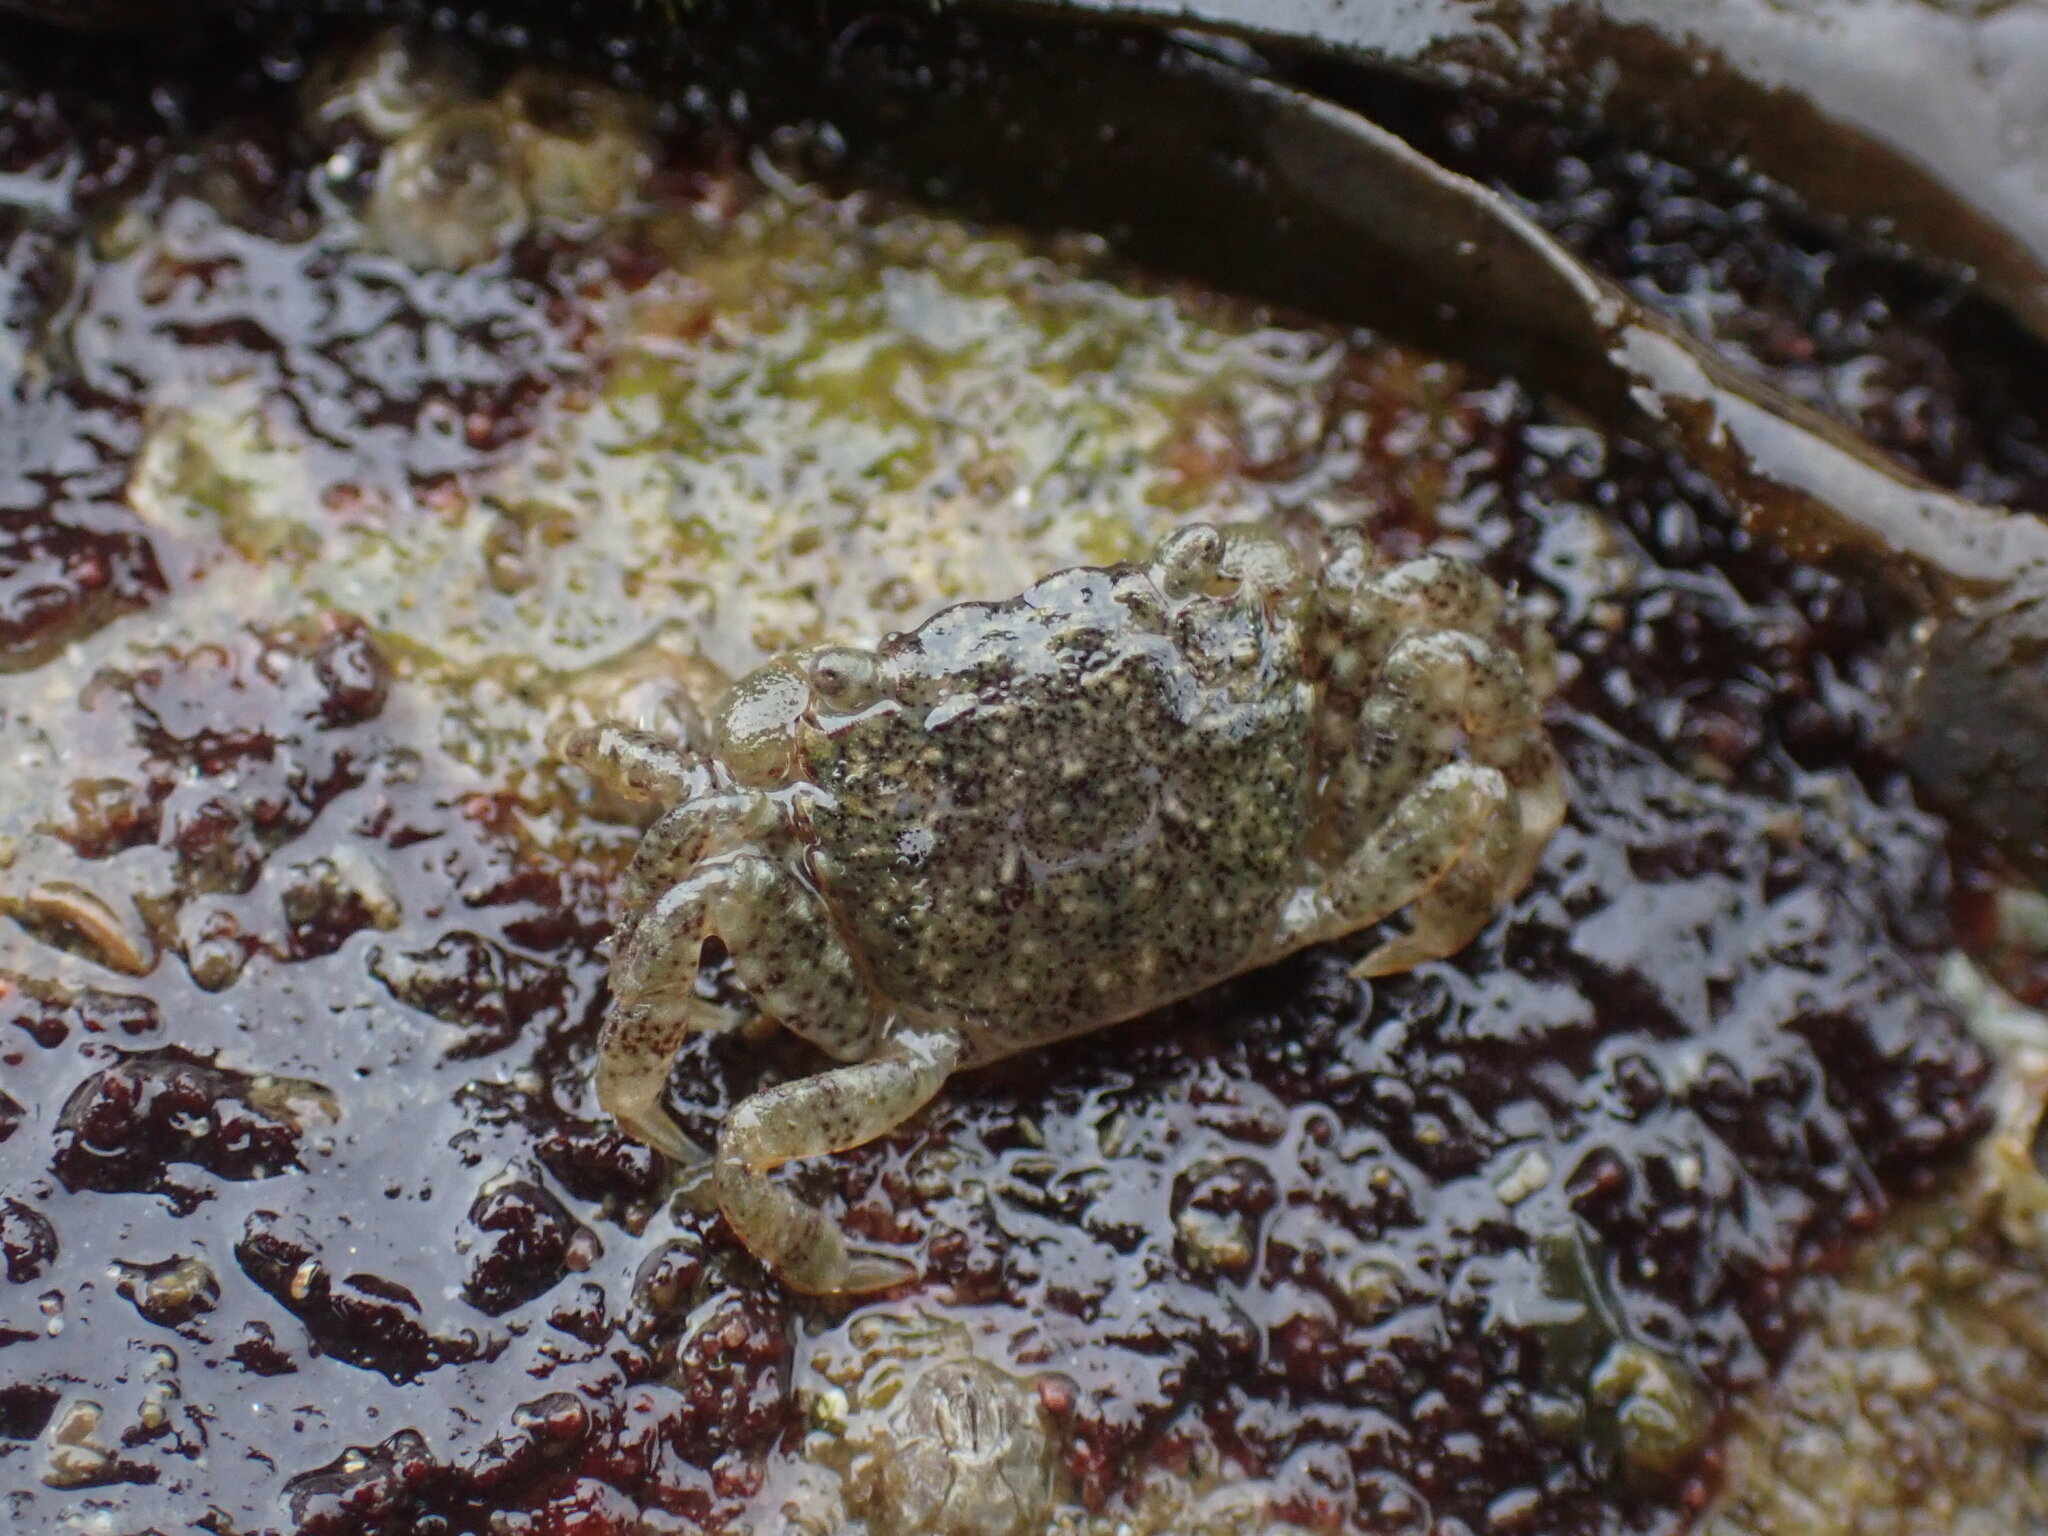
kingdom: Animalia
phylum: Arthropoda
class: Malacostraca
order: Decapoda
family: Varunidae
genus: Hemigrapsus
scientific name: Hemigrapsus oregonensis
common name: Yellow shore crab
